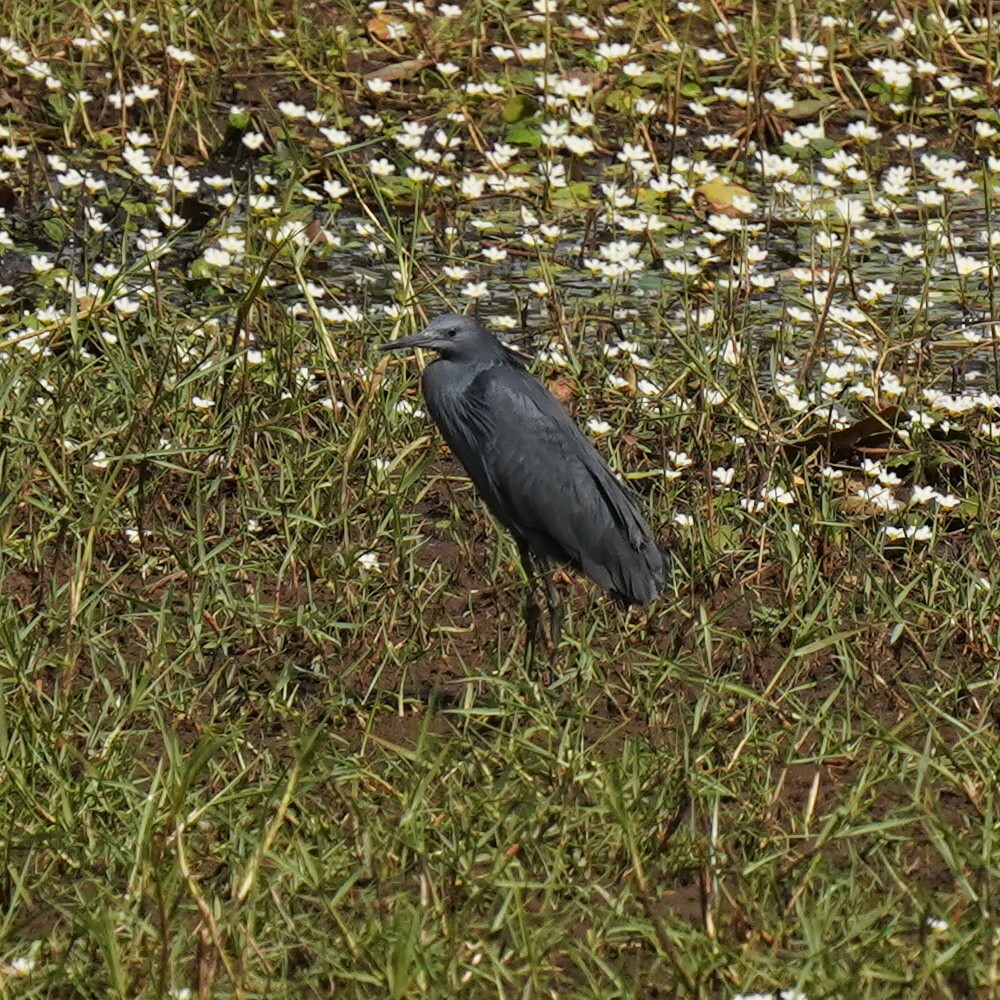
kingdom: Animalia
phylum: Chordata
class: Aves
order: Pelecaniformes
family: Ardeidae
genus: Egretta
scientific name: Egretta ardesiaca
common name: Black heron
